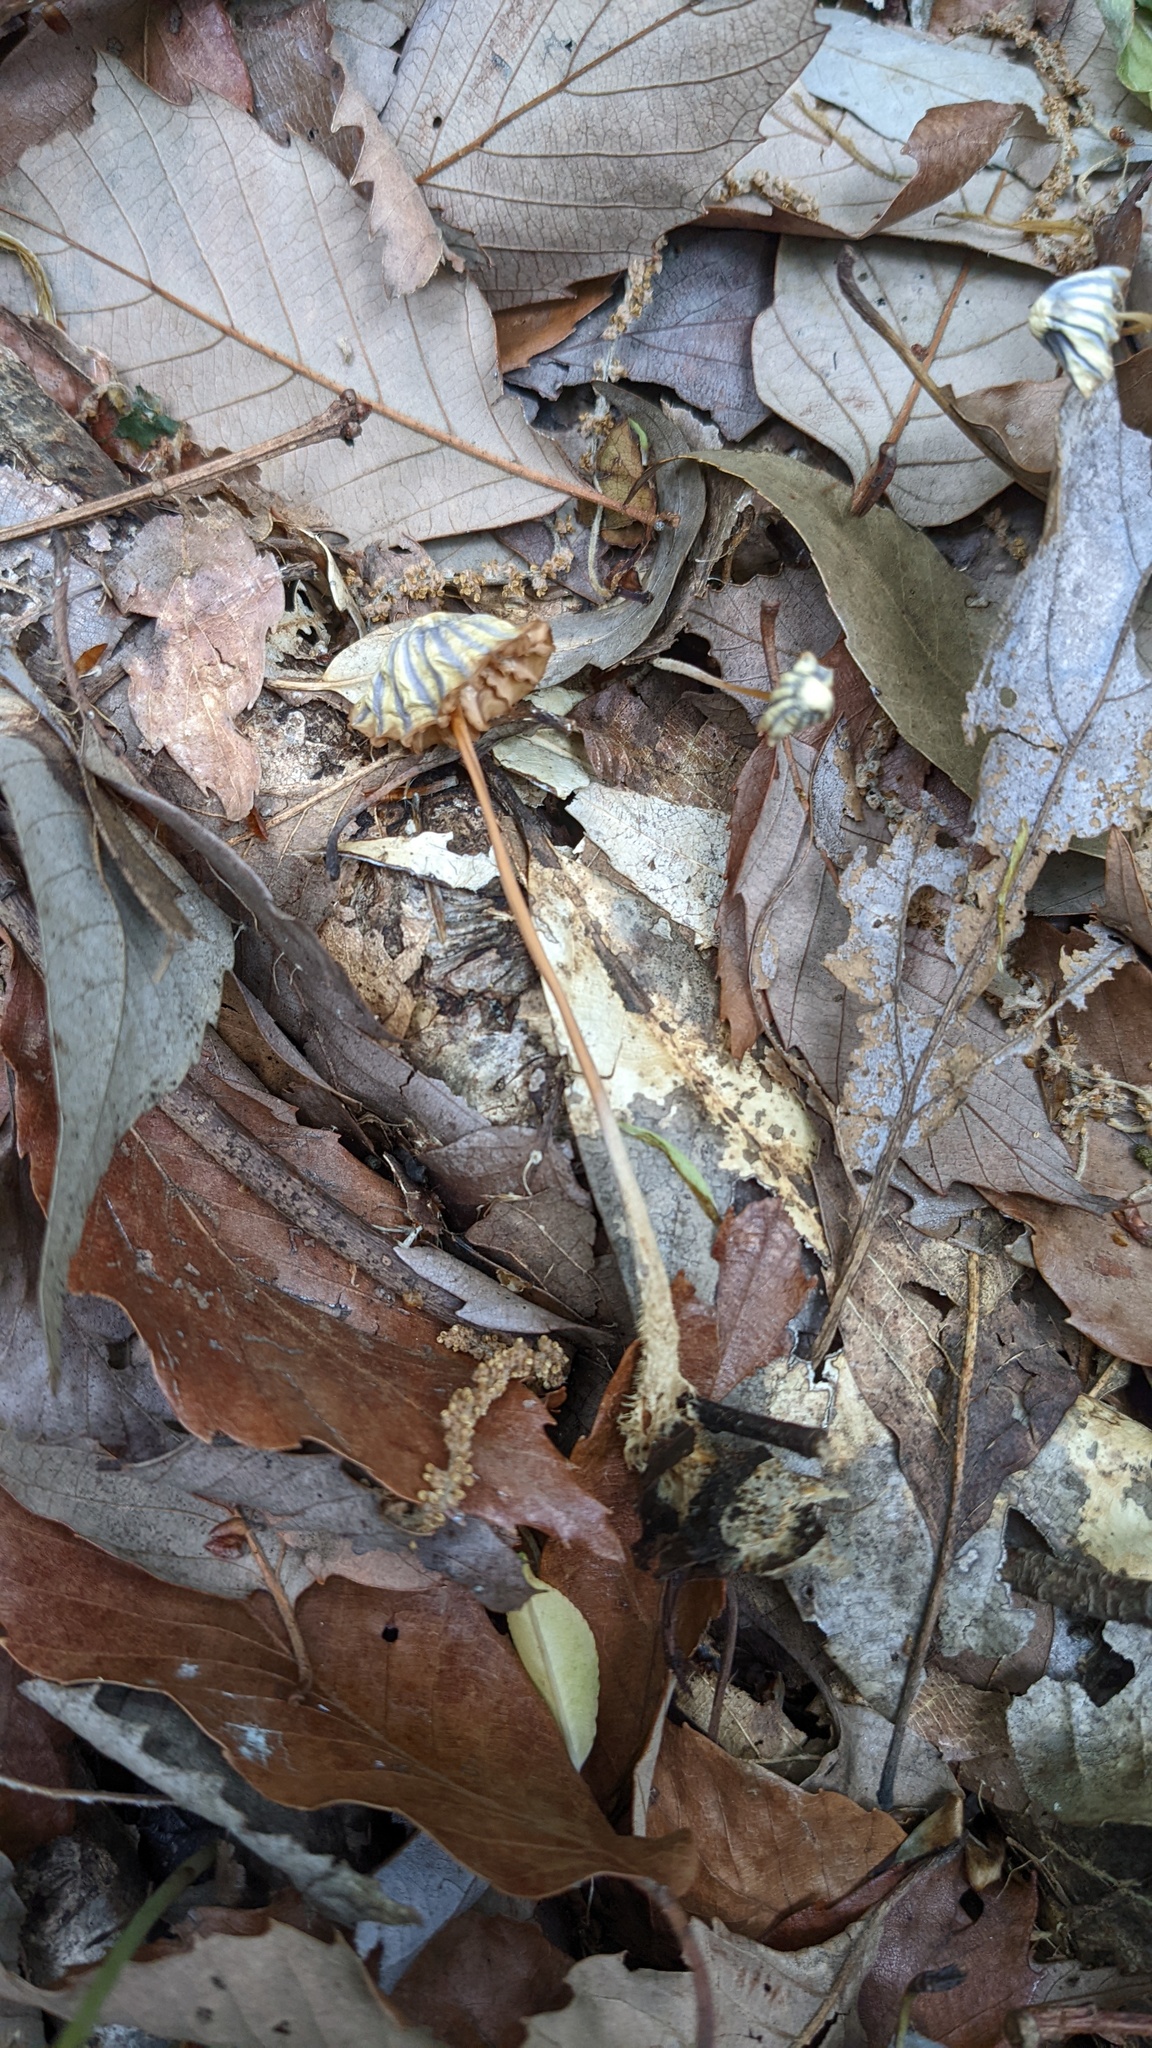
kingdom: Fungi
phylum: Basidiomycota
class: Agaricomycetes
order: Agaricales
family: Marasmiaceae
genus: Marasmius
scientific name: Marasmius purpureostriatus
